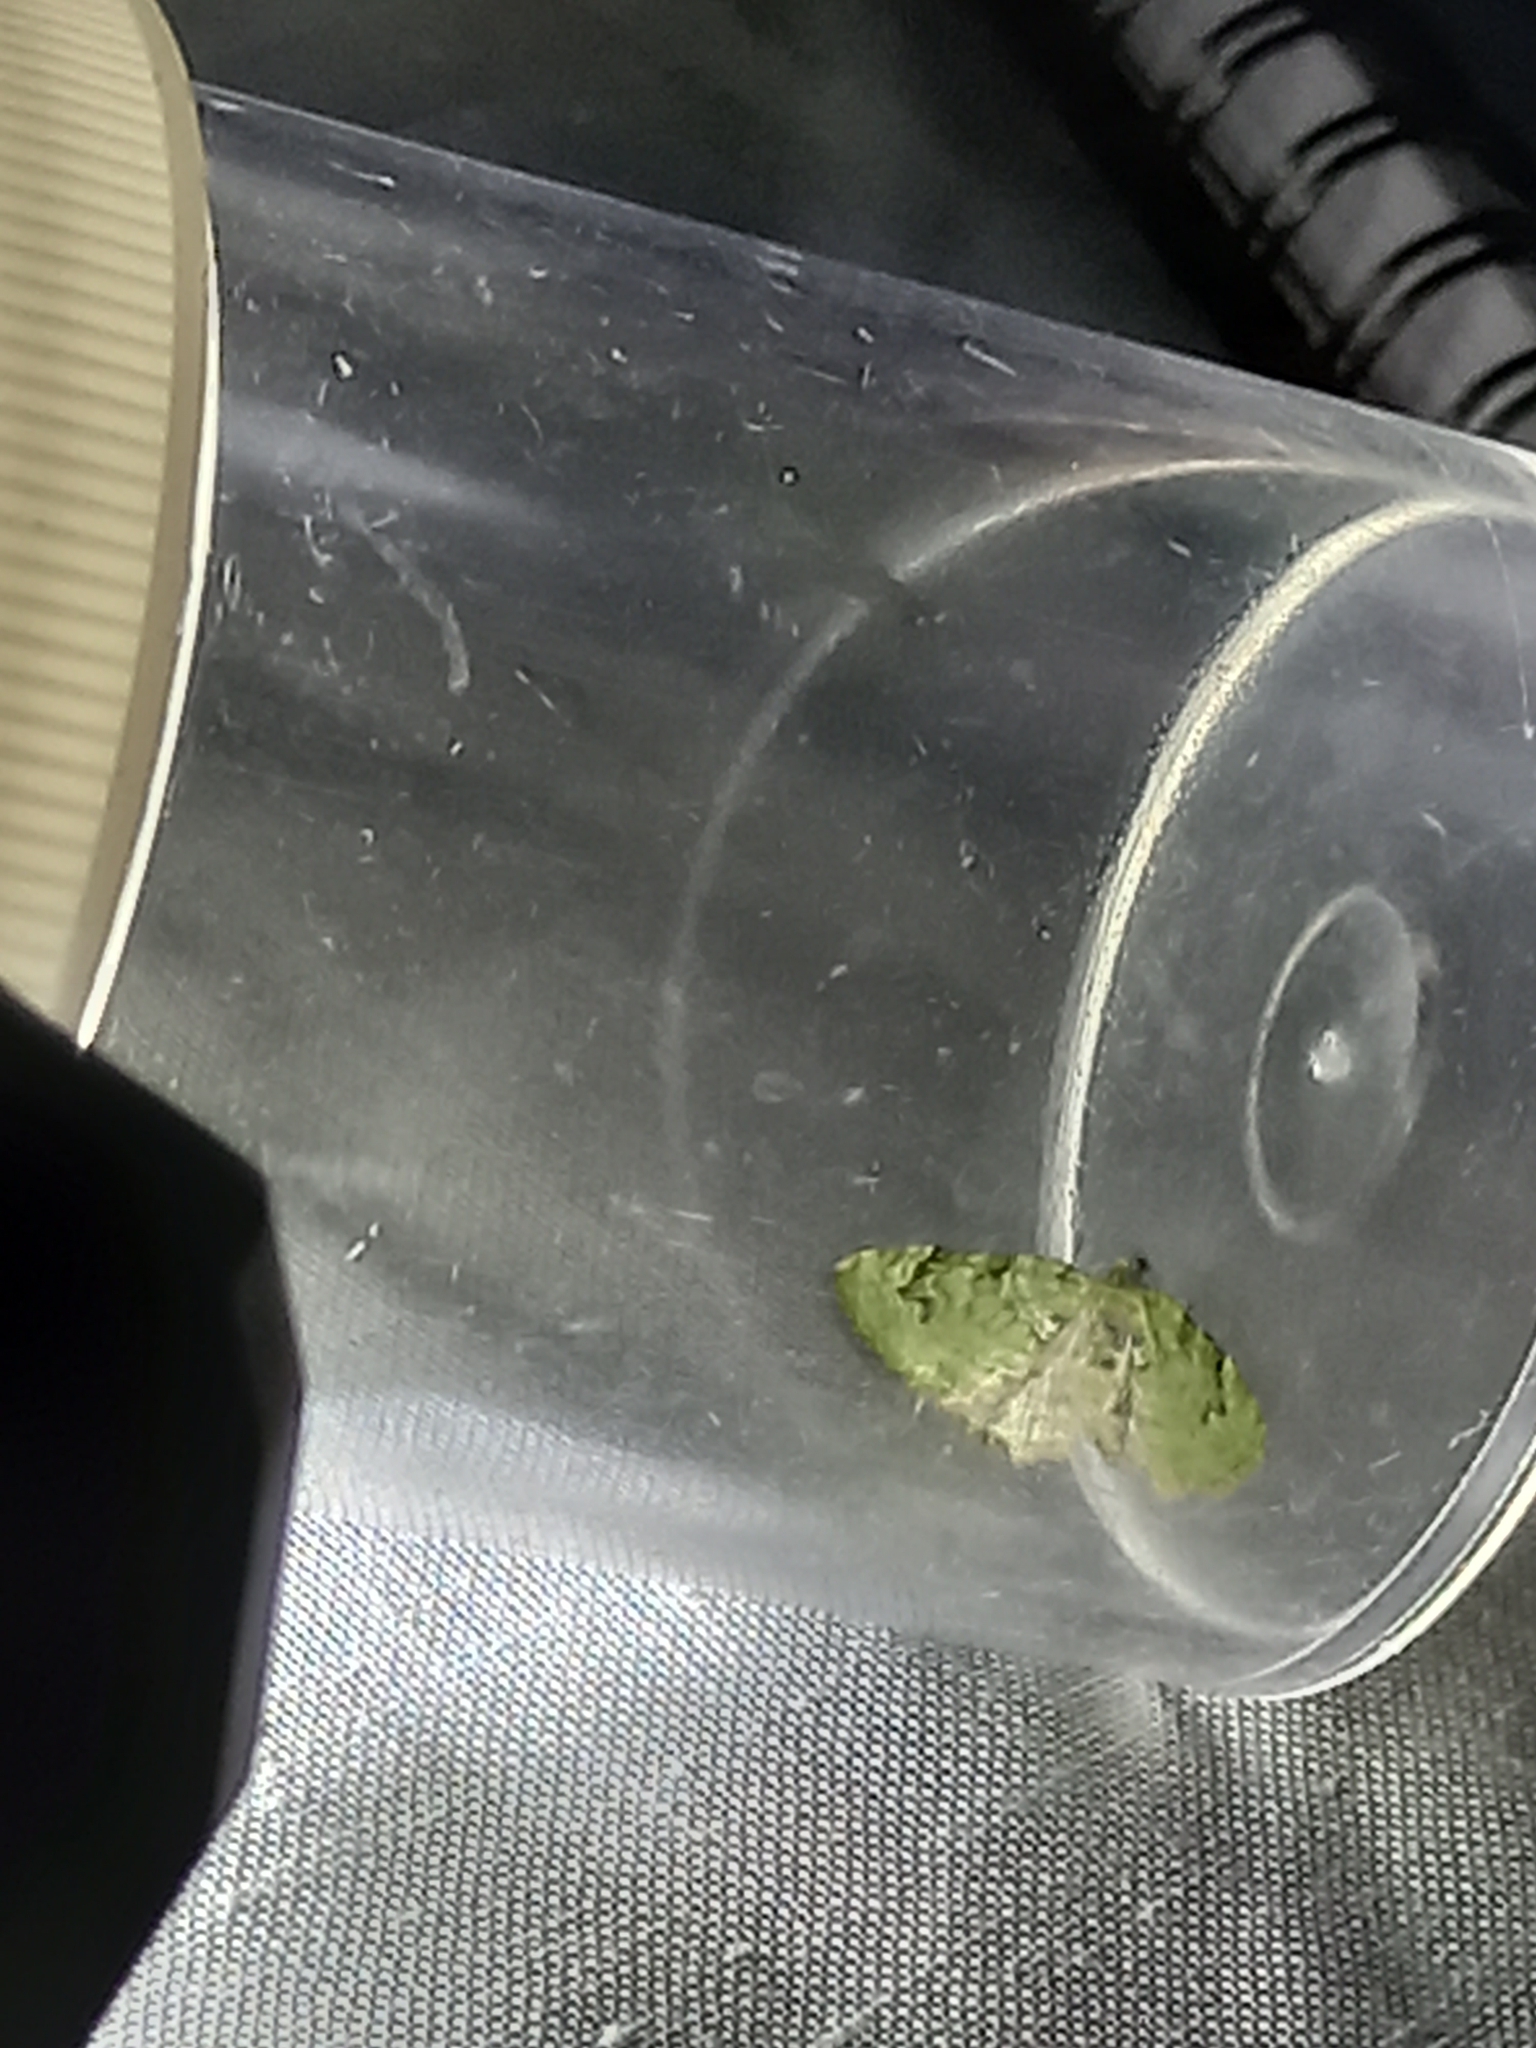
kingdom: Animalia
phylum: Arthropoda
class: Insecta
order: Lepidoptera
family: Geometridae
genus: Chloroclystis
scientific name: Chloroclystis v-ata
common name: V-pug
